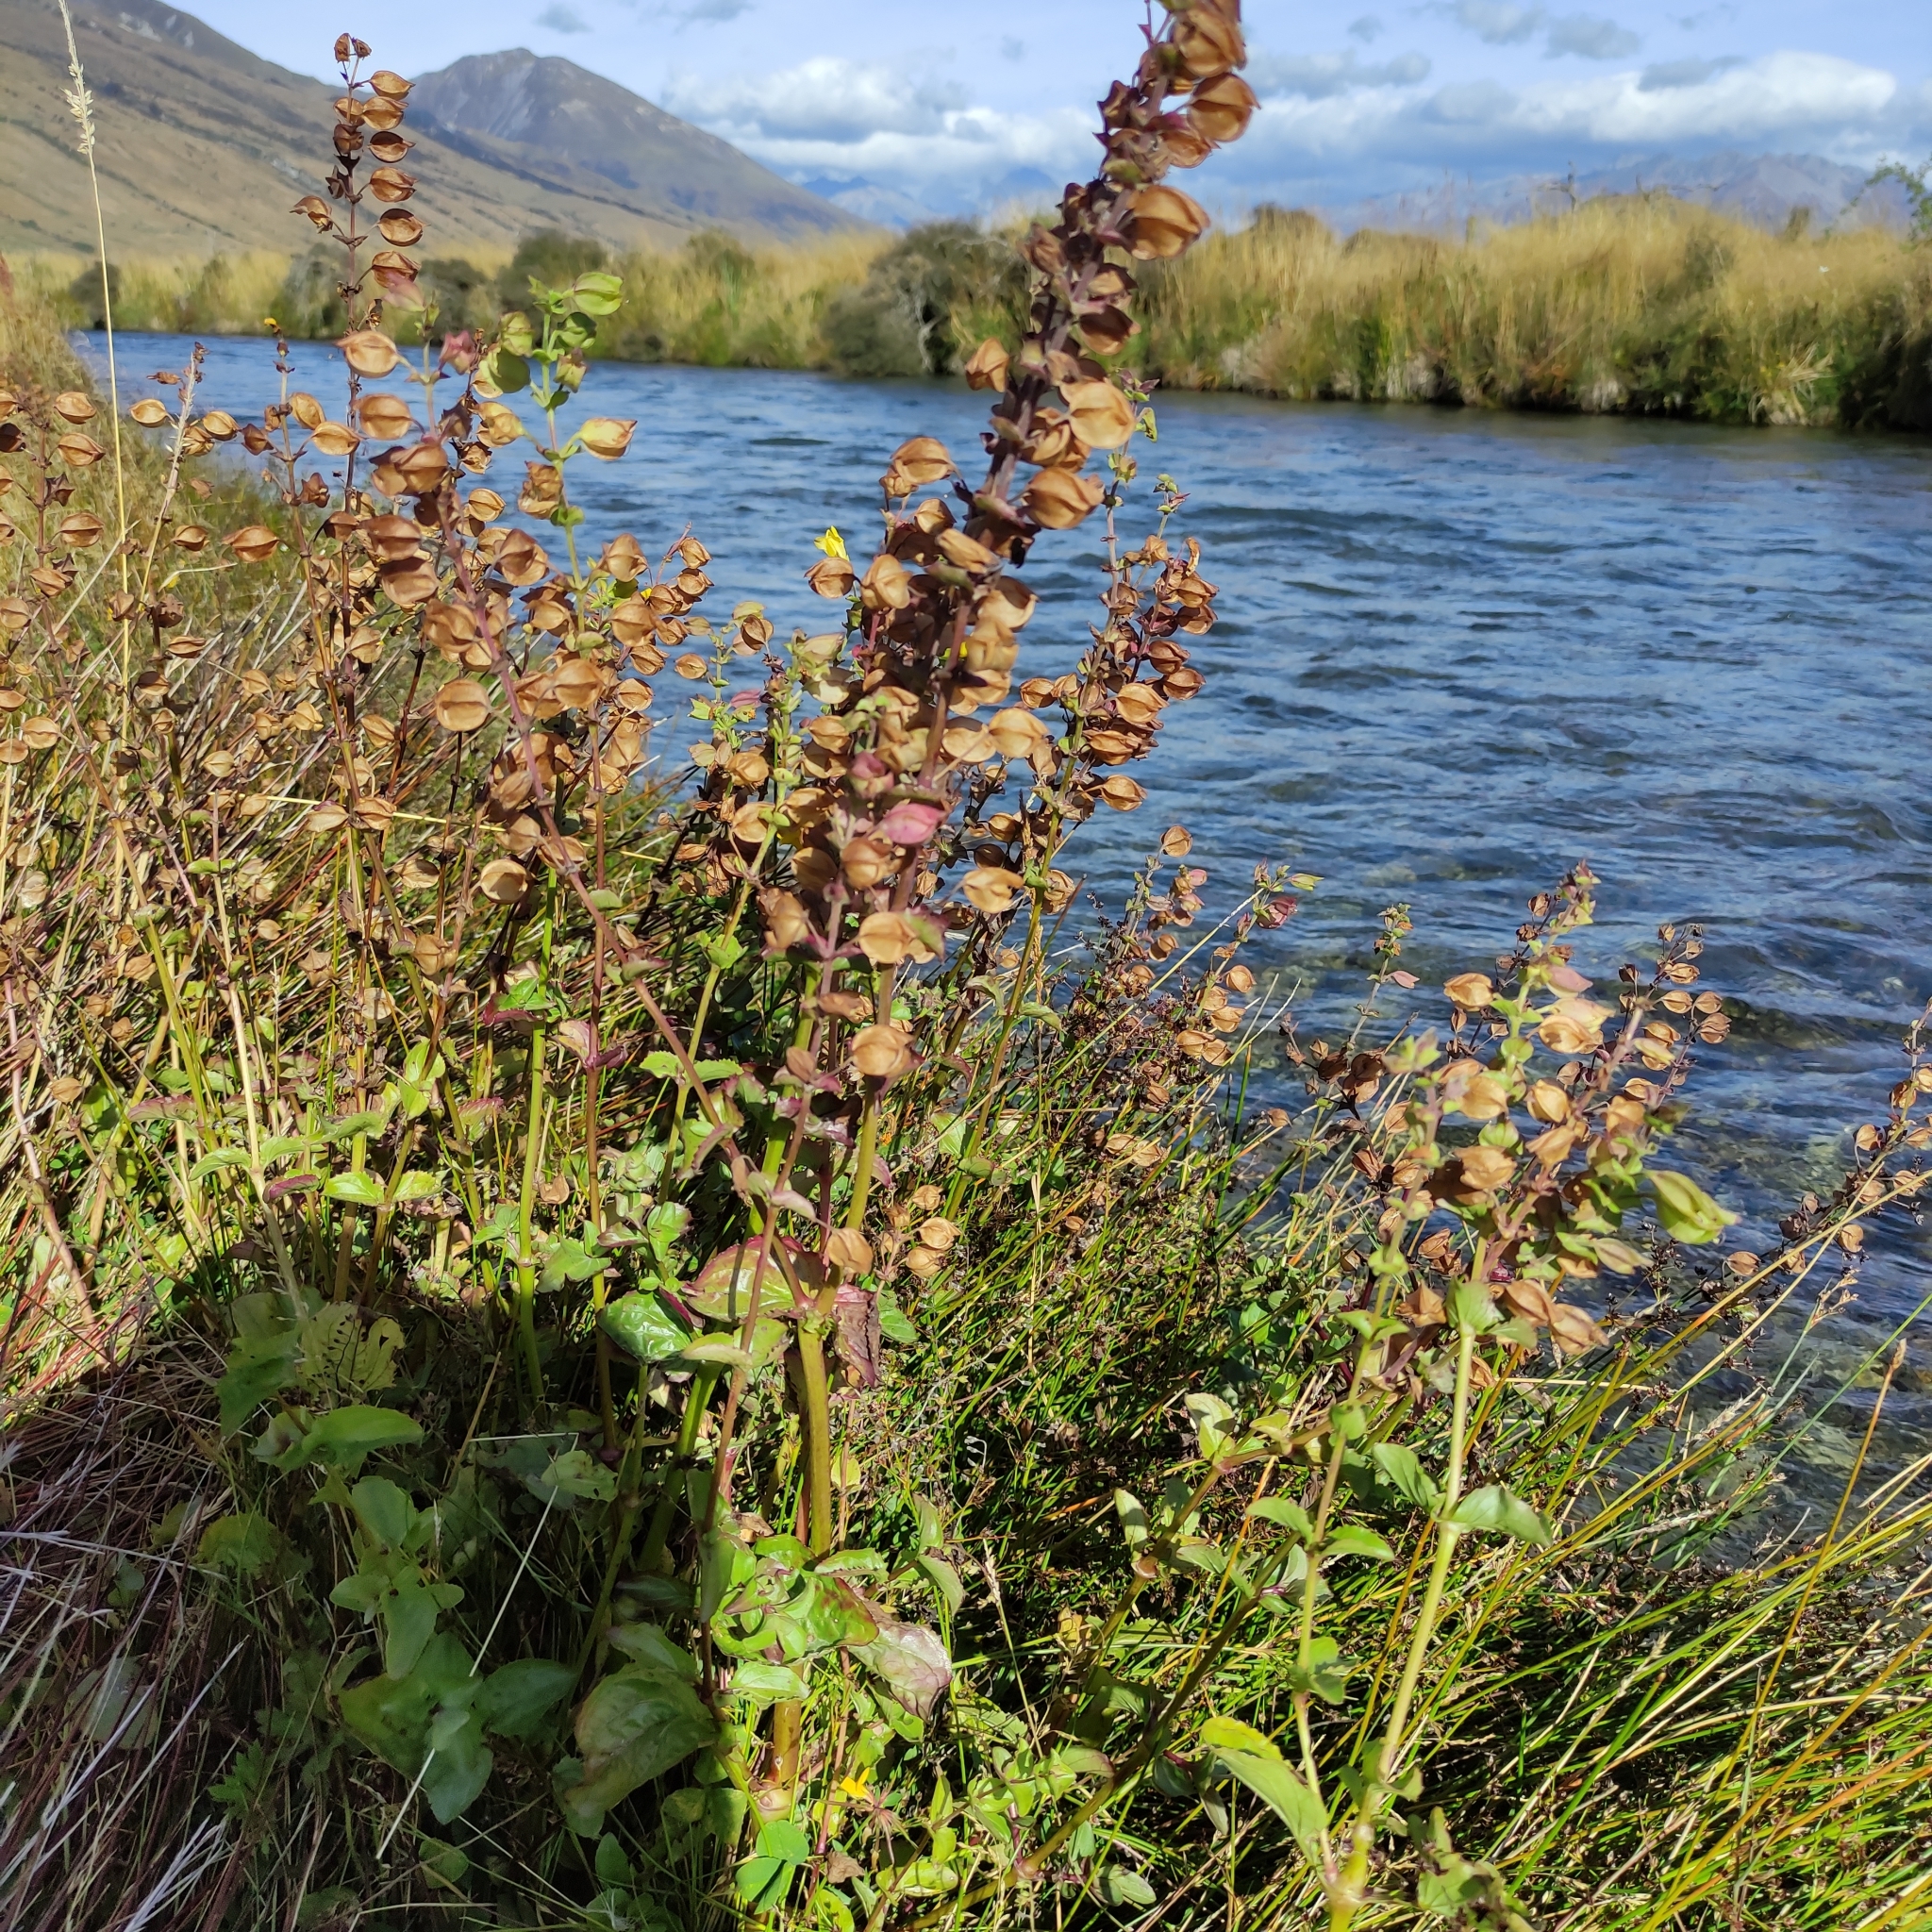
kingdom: Plantae
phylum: Tracheophyta
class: Magnoliopsida
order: Lamiales
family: Phrymaceae
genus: Erythranthe
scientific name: Erythranthe guttata
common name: Monkeyflower
